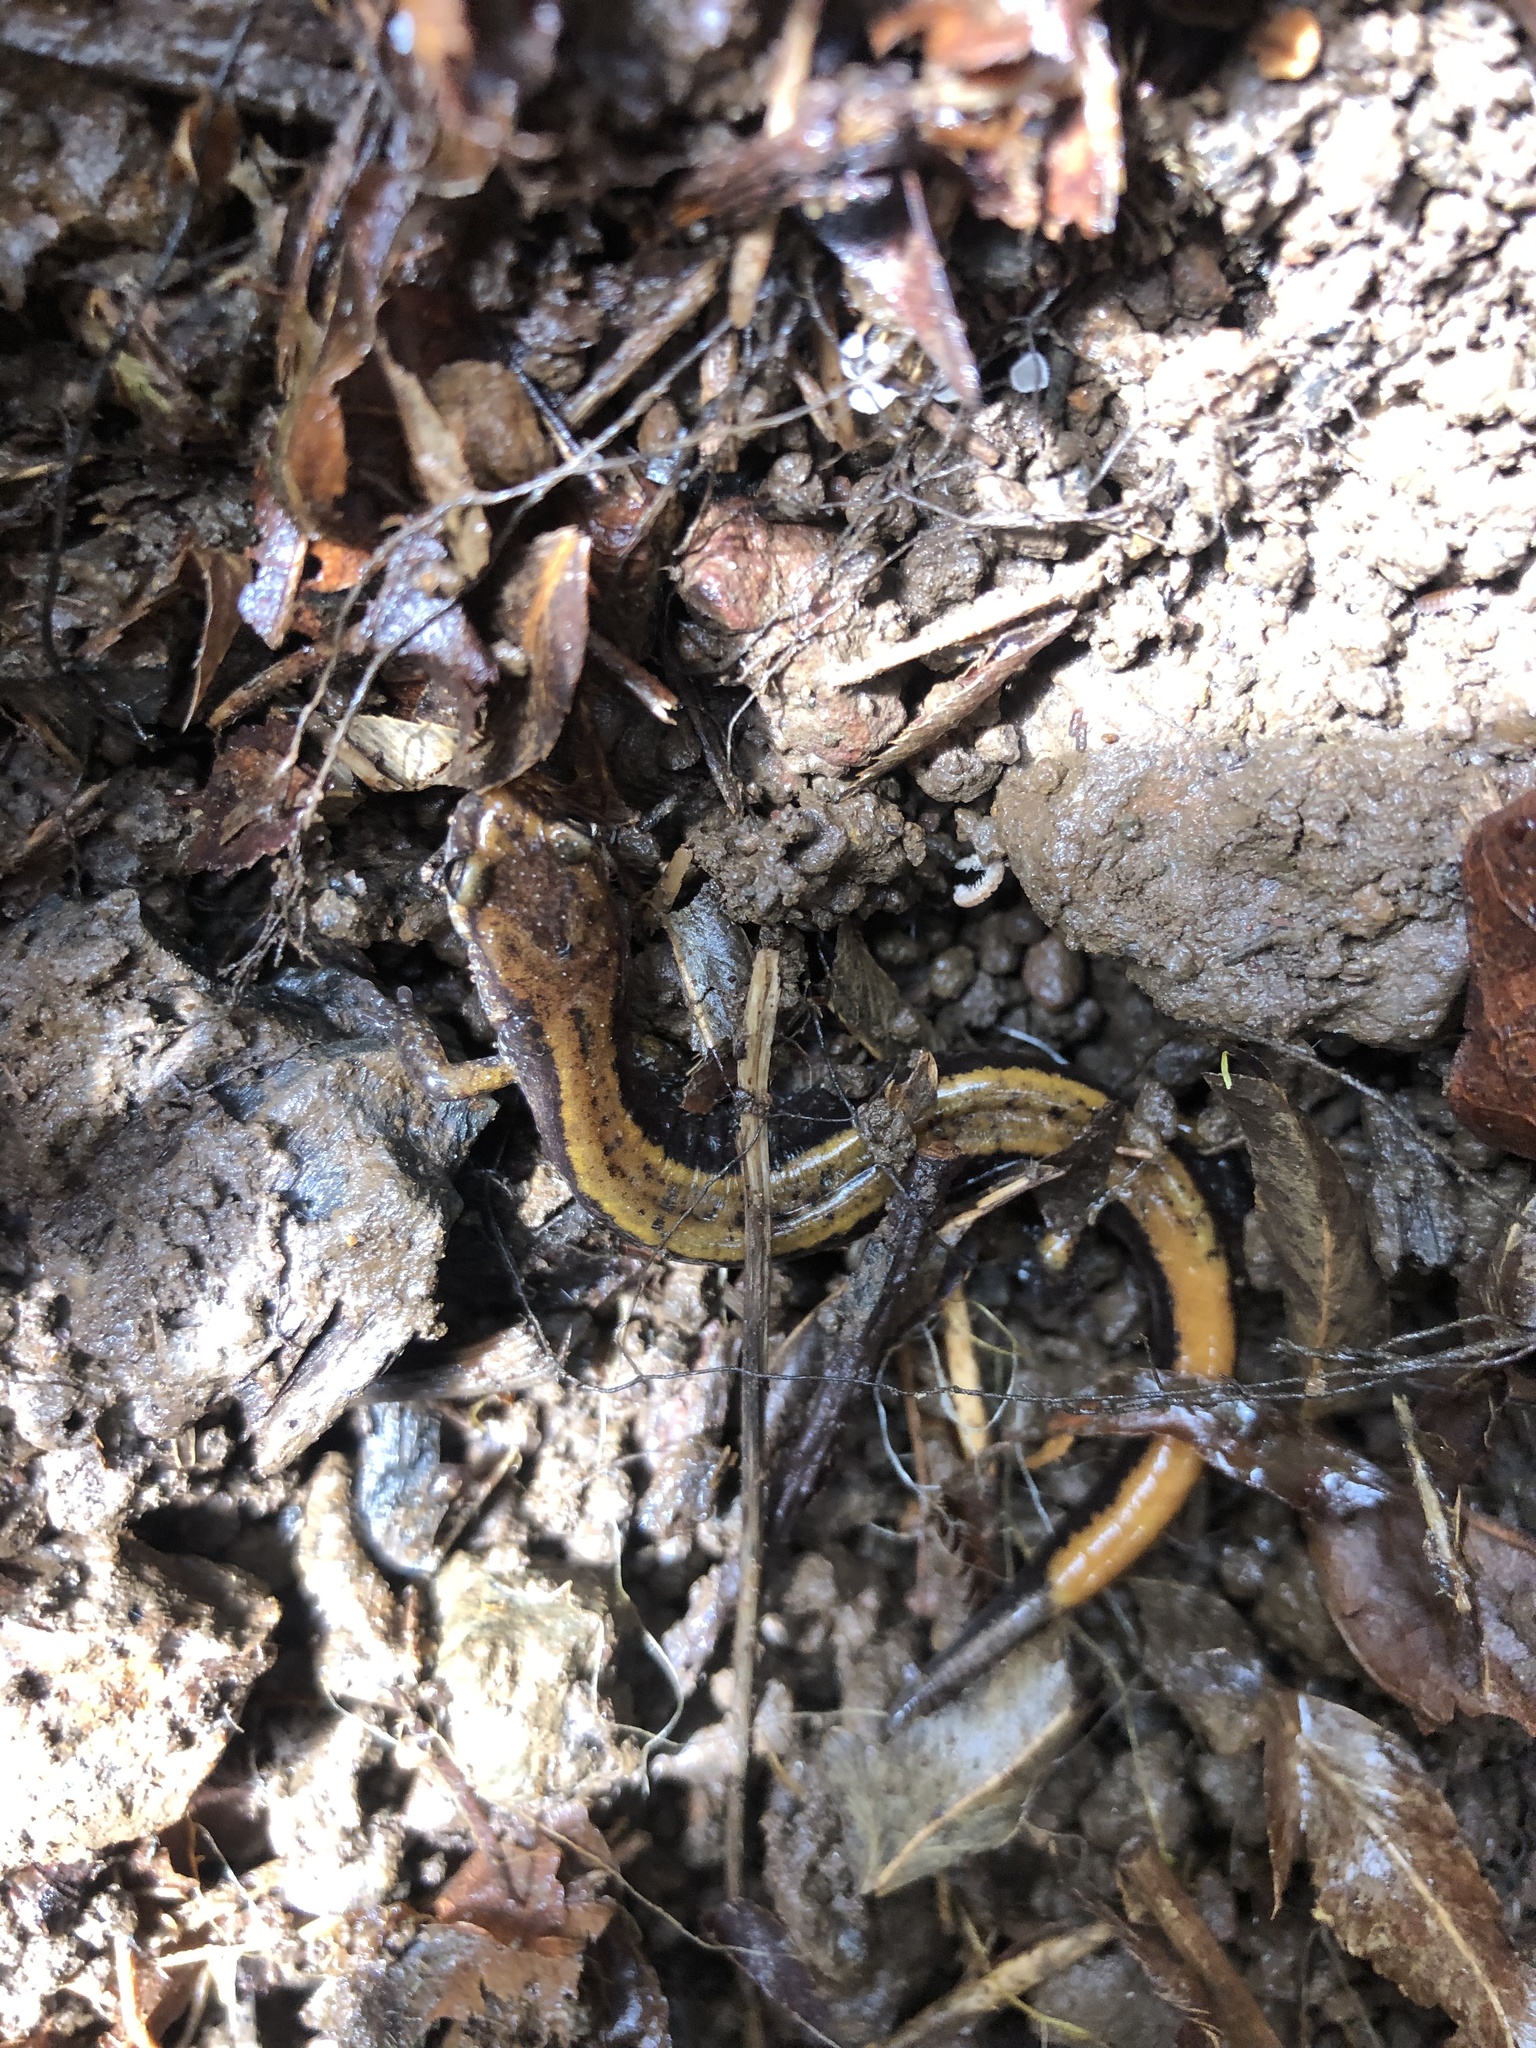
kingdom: Animalia
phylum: Chordata
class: Amphibia
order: Caudata
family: Plethodontidae
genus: Plethodon
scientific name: Plethodon vehiculum
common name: Western red-backed salamander
